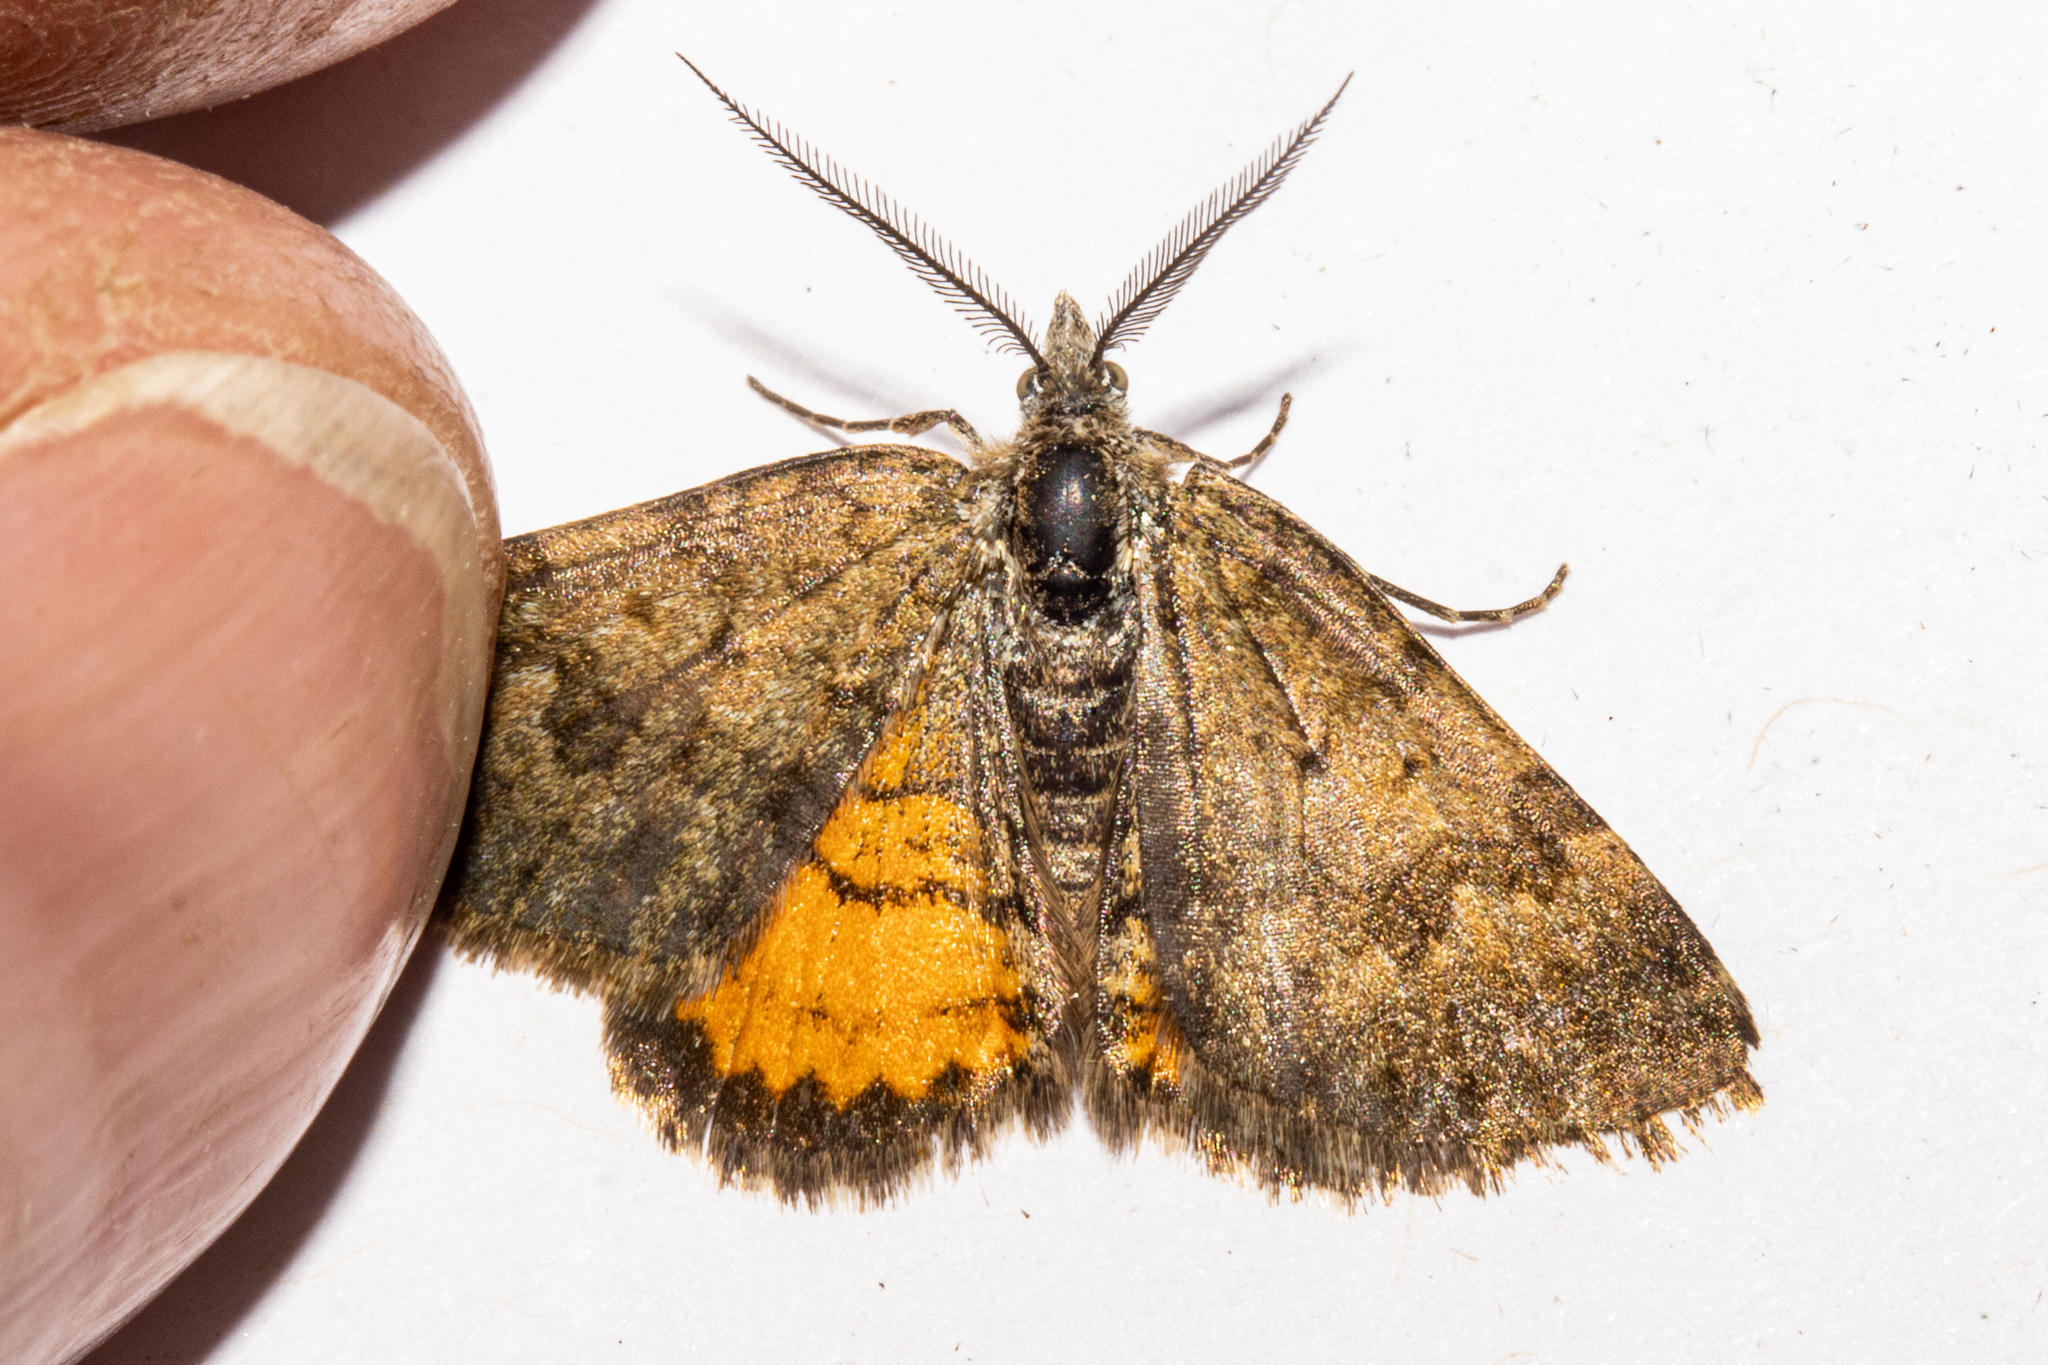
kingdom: Animalia
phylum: Arthropoda
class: Insecta
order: Lepidoptera
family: Geometridae
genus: Paranotoreas
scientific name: Paranotoreas brephosata
